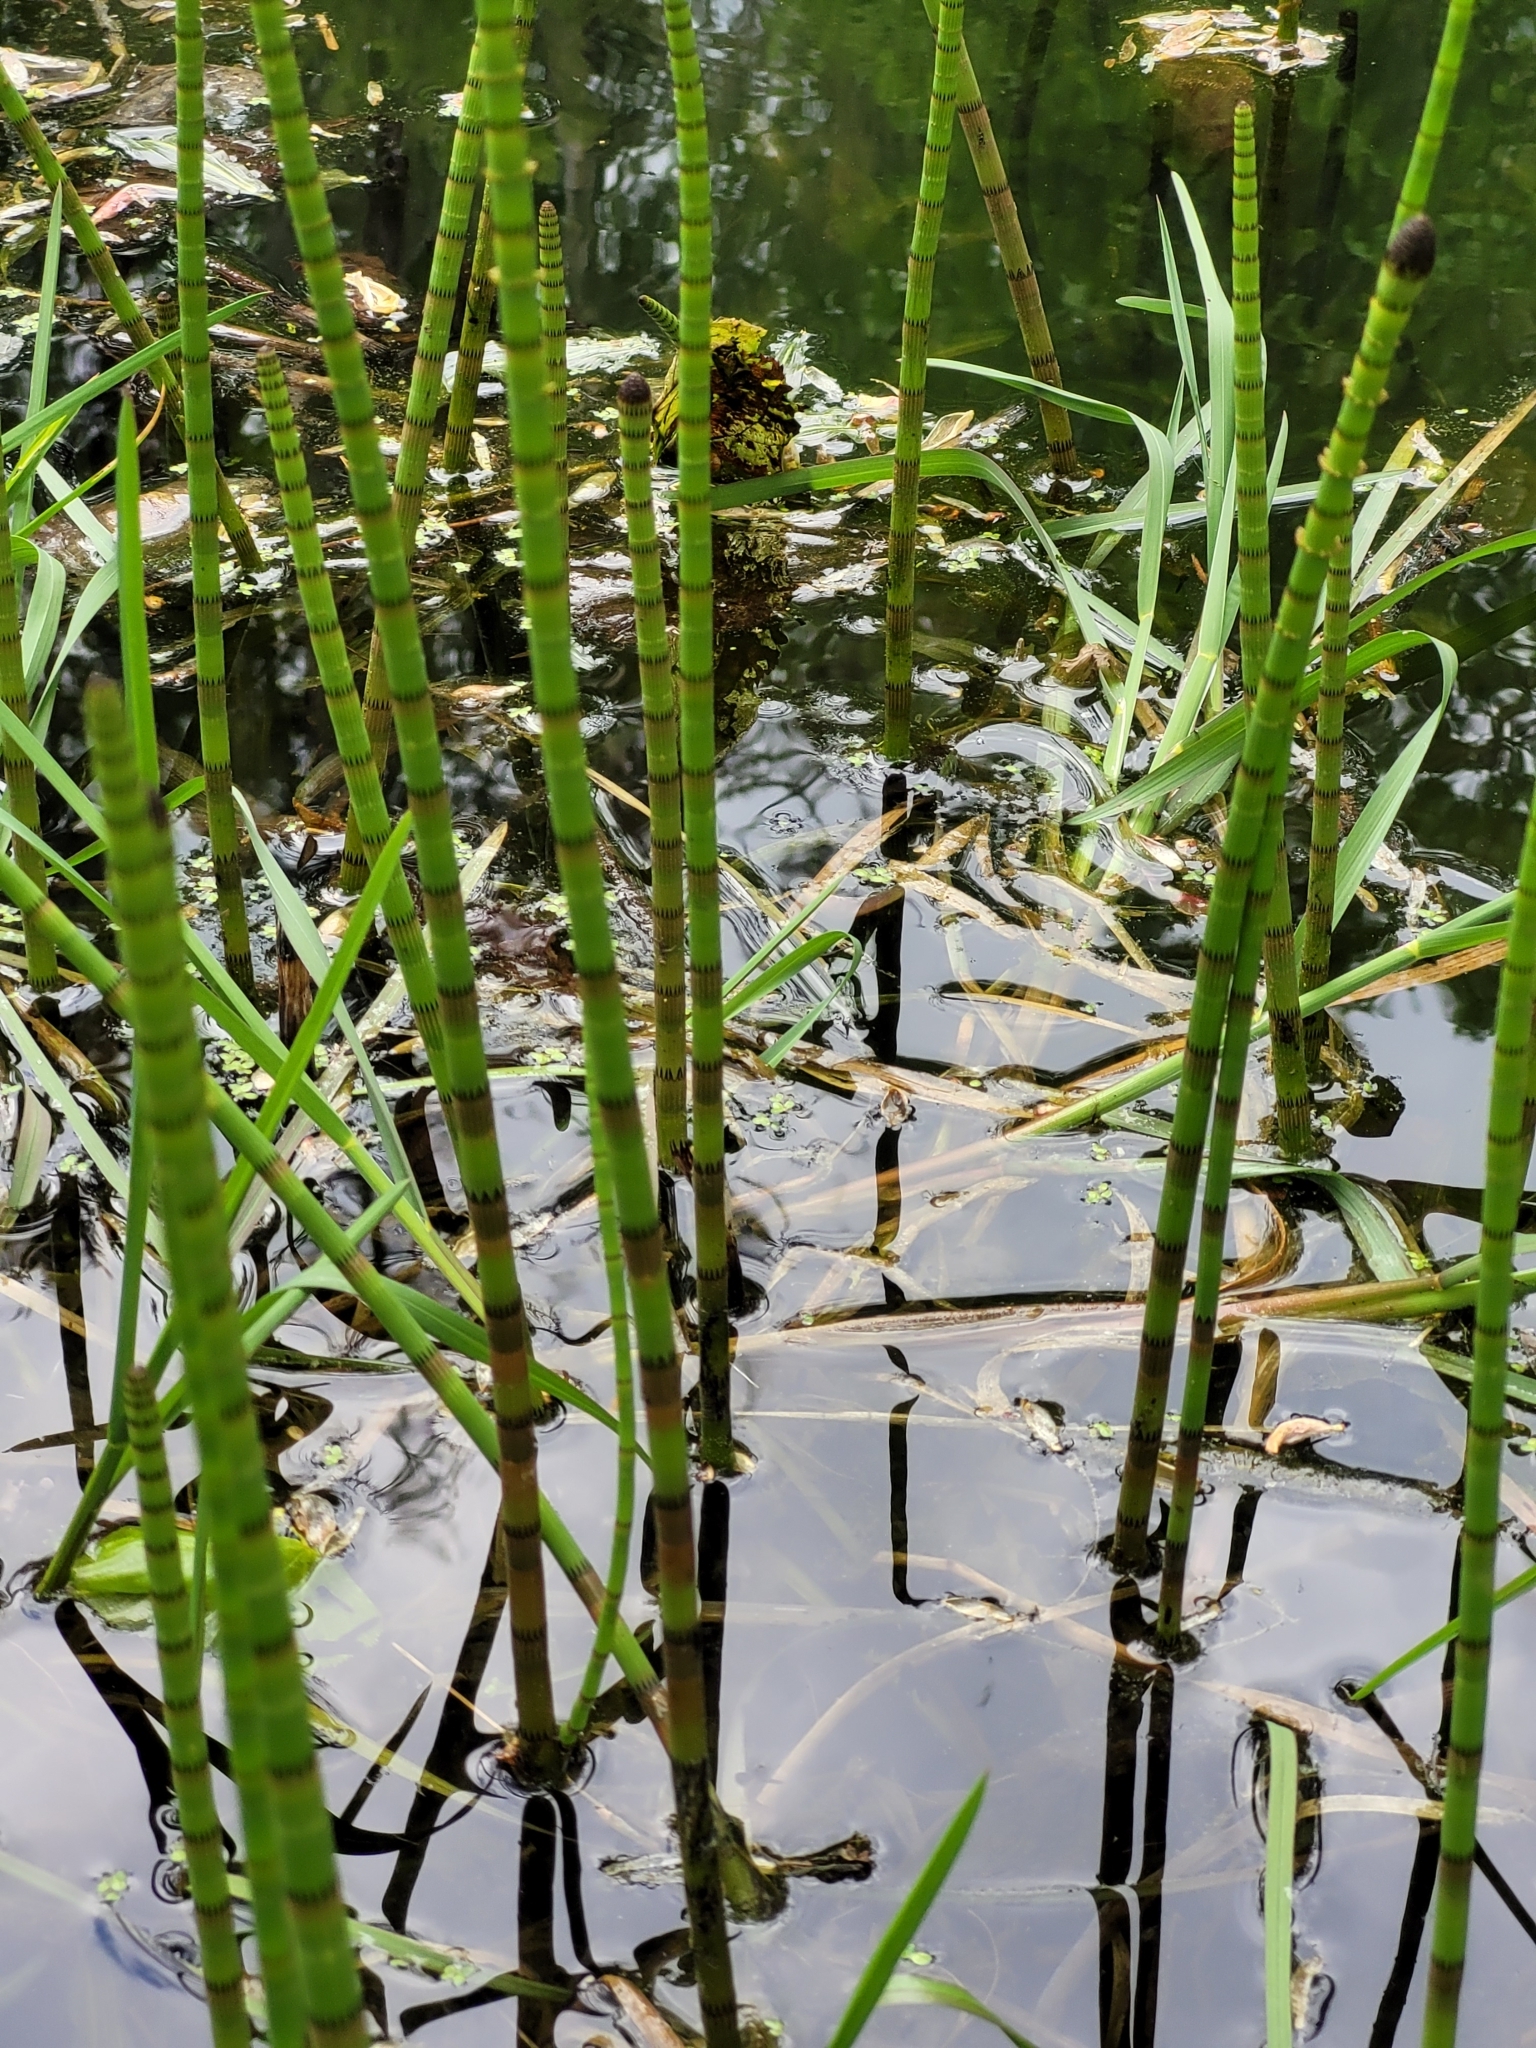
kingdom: Plantae
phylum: Tracheophyta
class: Polypodiopsida
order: Equisetales
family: Equisetaceae
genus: Equisetum
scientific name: Equisetum fluviatile
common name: Water horsetail
